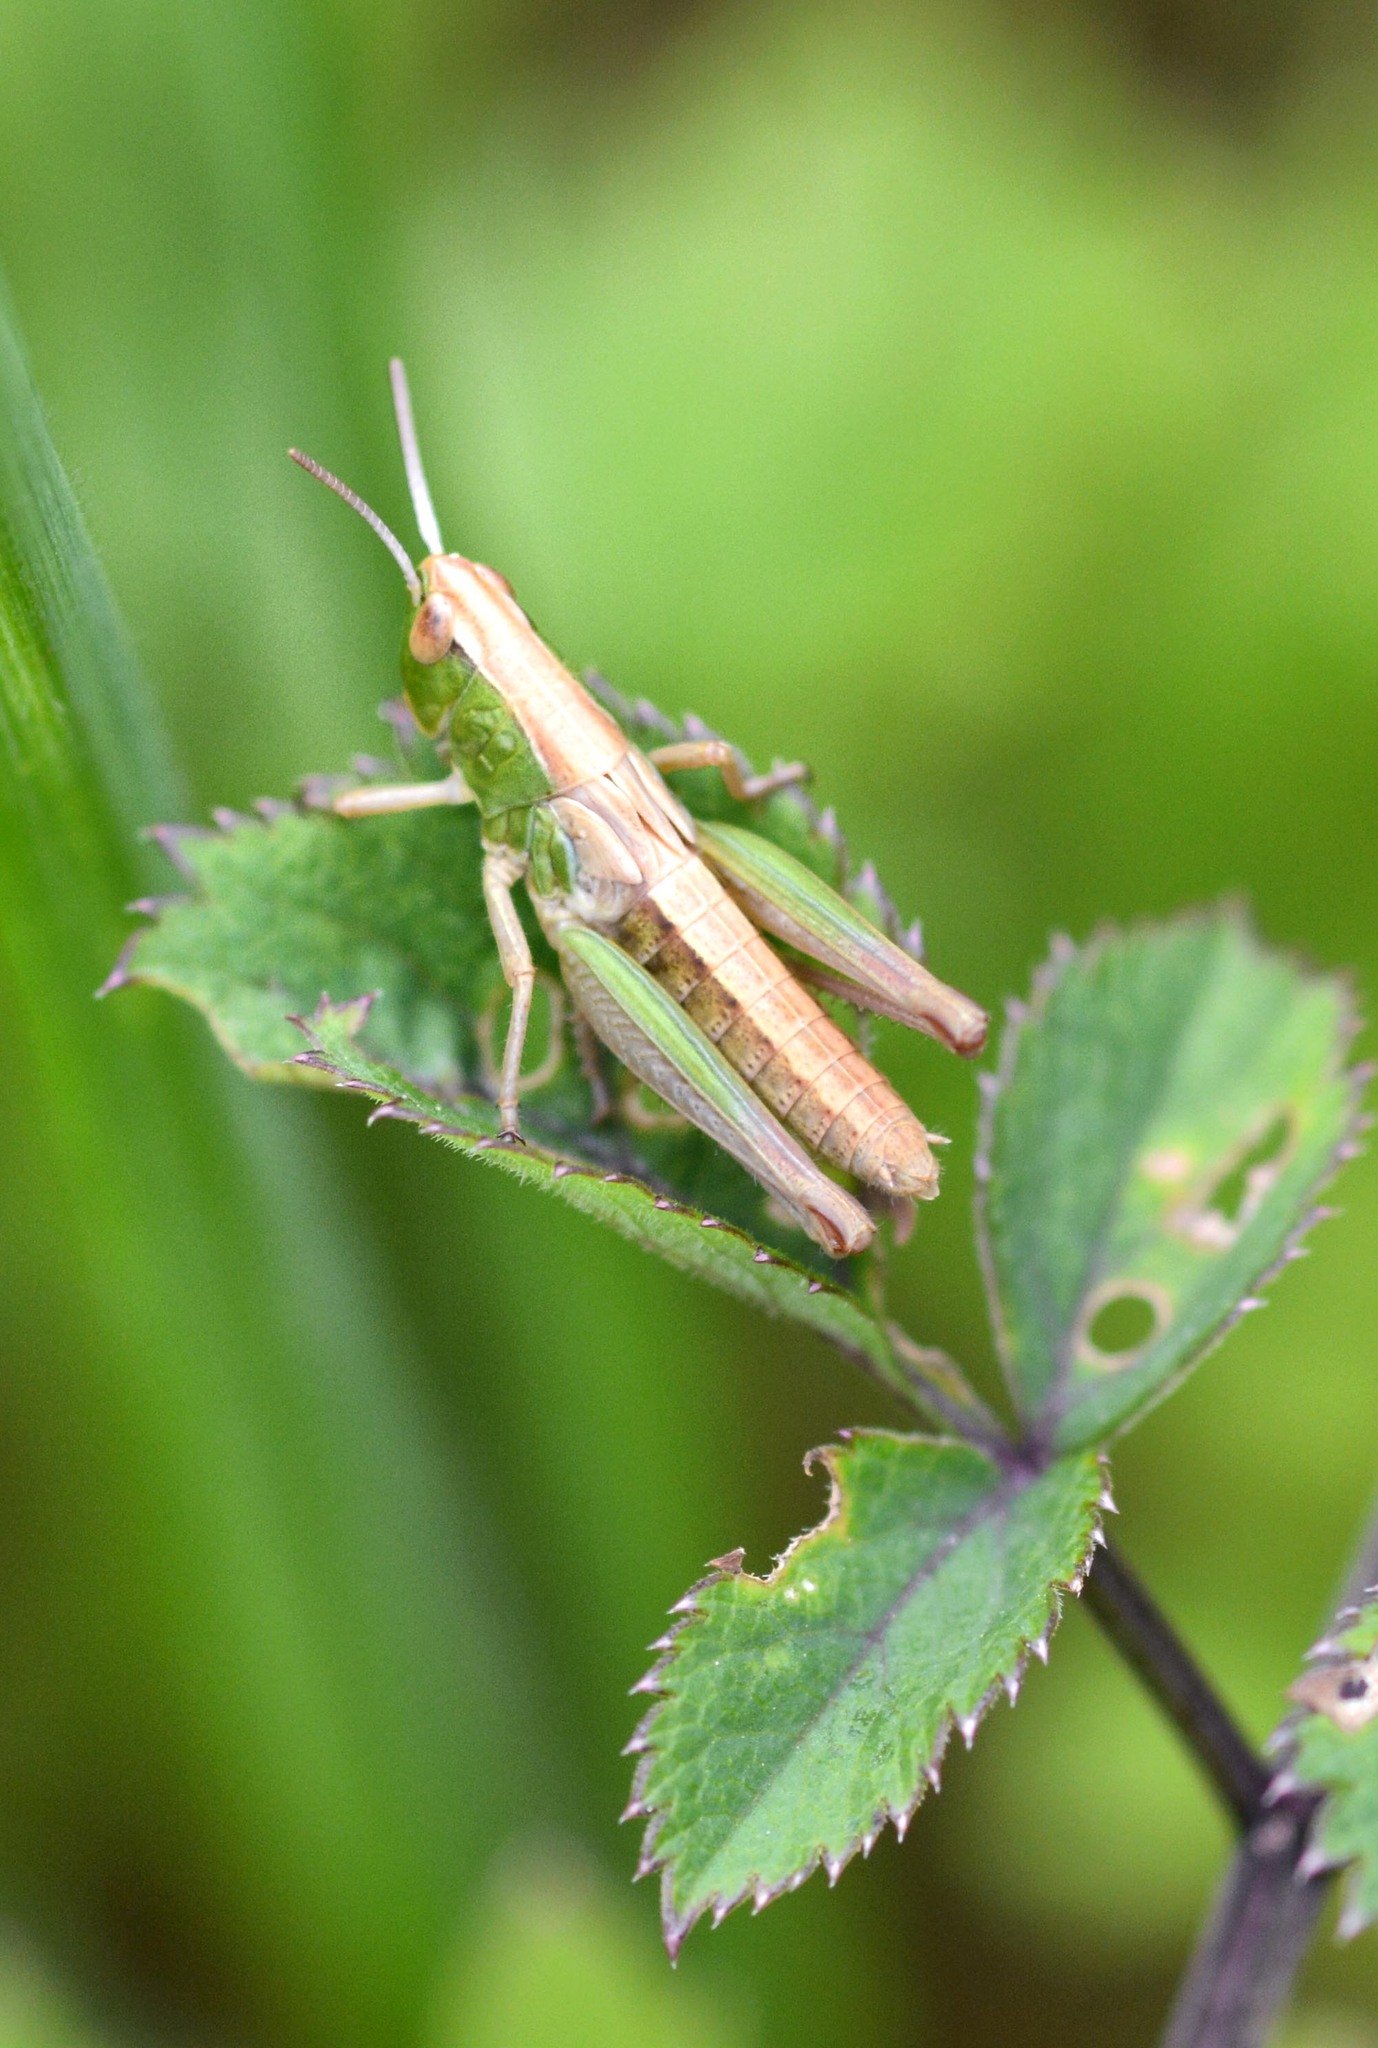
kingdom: Animalia
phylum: Arthropoda
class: Insecta
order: Orthoptera
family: Acrididae
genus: Pseudochorthippus
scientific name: Pseudochorthippus parallelus
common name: Meadow grasshopper
